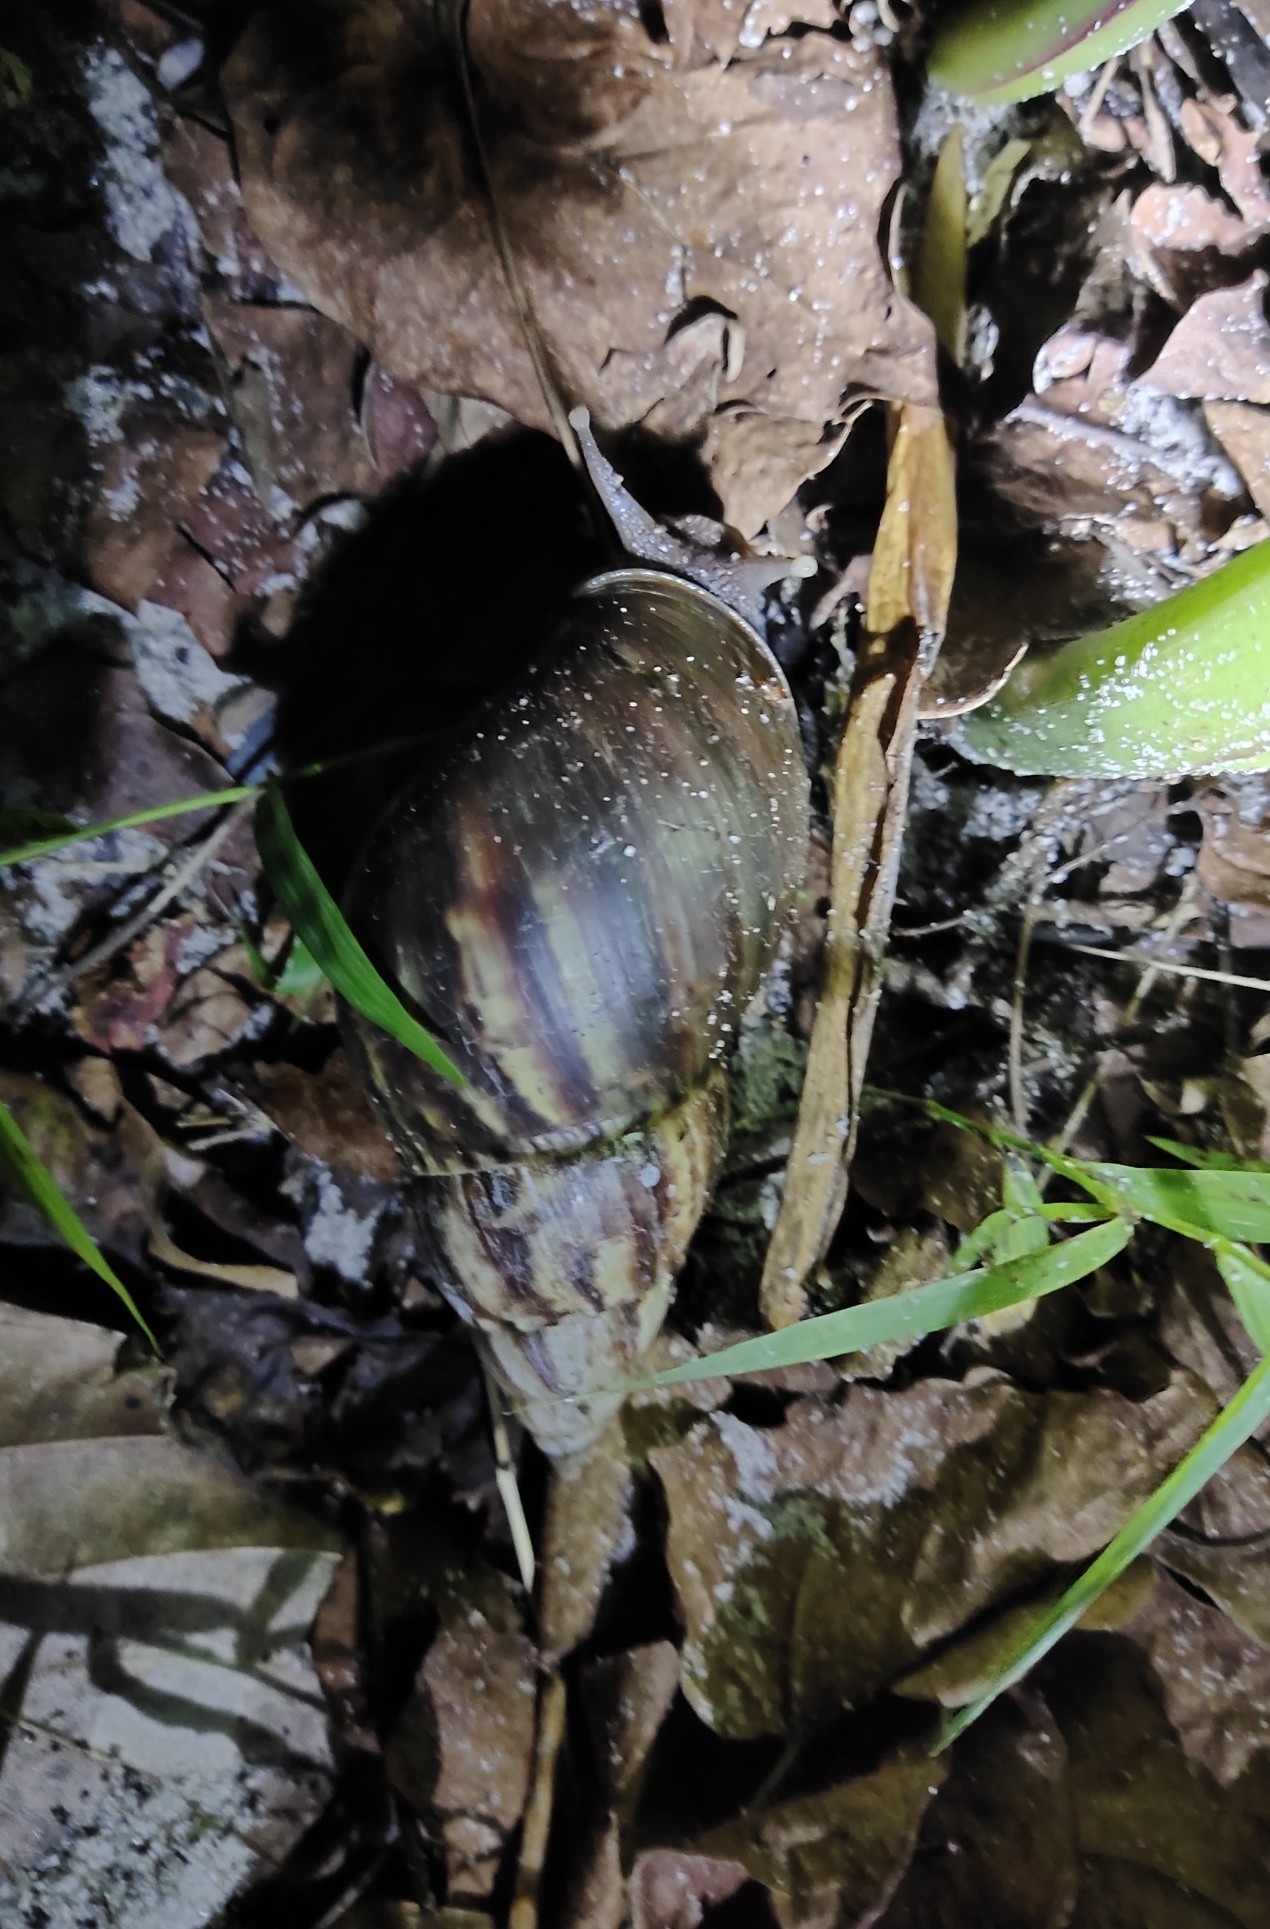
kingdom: Animalia
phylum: Mollusca
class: Gastropoda
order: Stylommatophora
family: Achatinidae
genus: Lissachatina
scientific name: Lissachatina fulica
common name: Giant african snail
